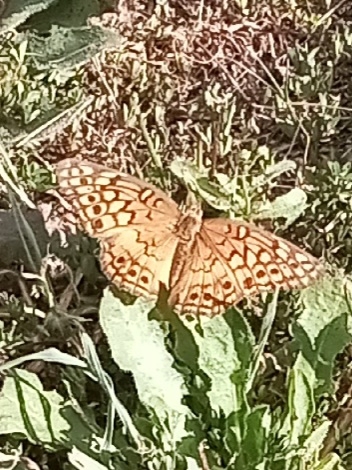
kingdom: Animalia
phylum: Arthropoda
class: Insecta
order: Lepidoptera
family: Nymphalidae
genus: Euptoieta
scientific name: Euptoieta claudia
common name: Variegated fritillary
